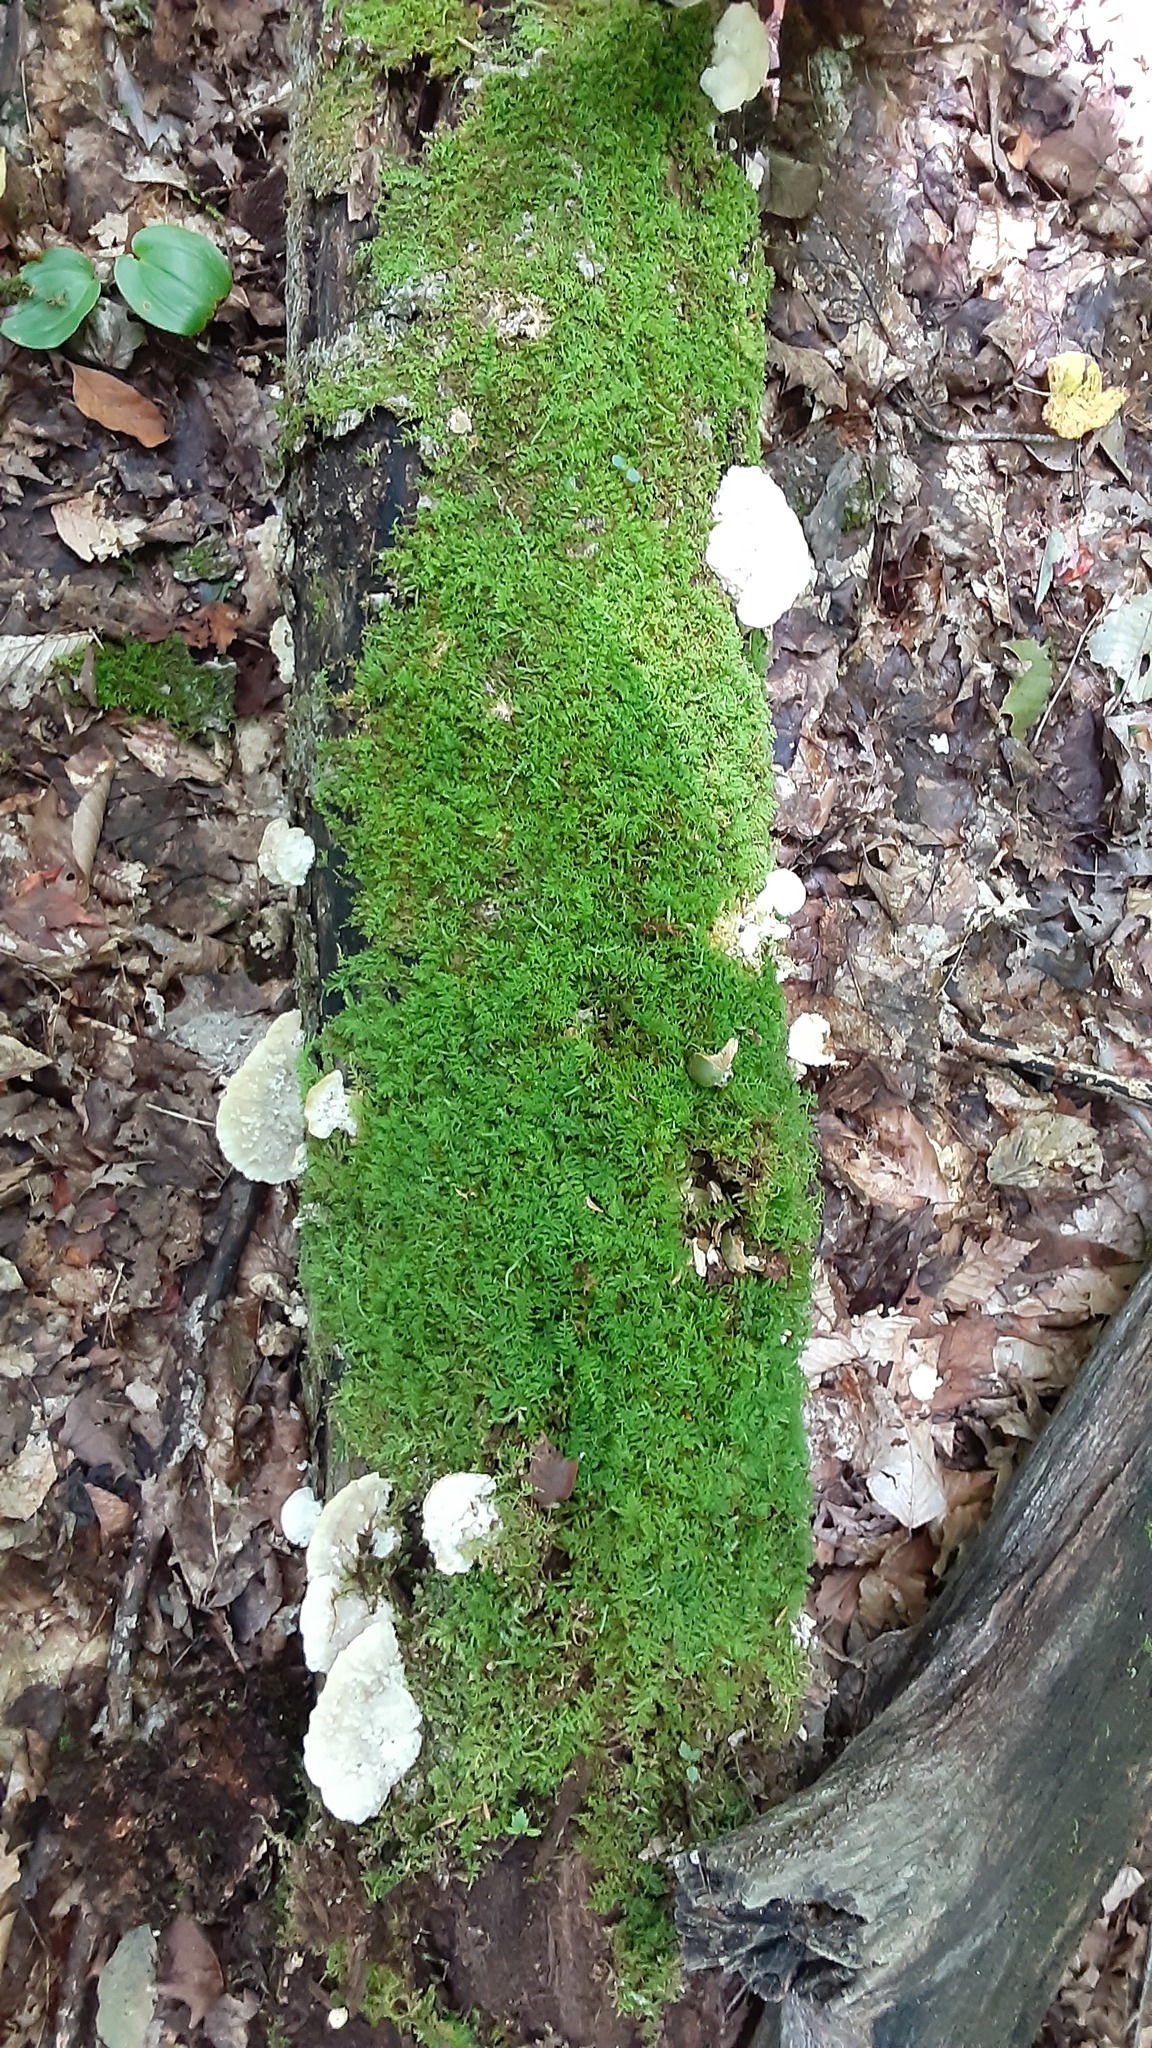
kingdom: Fungi
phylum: Basidiomycota
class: Agaricomycetes
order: Polyporales
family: Incrustoporiaceae
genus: Tyromyces
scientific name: Tyromyces galactinus
